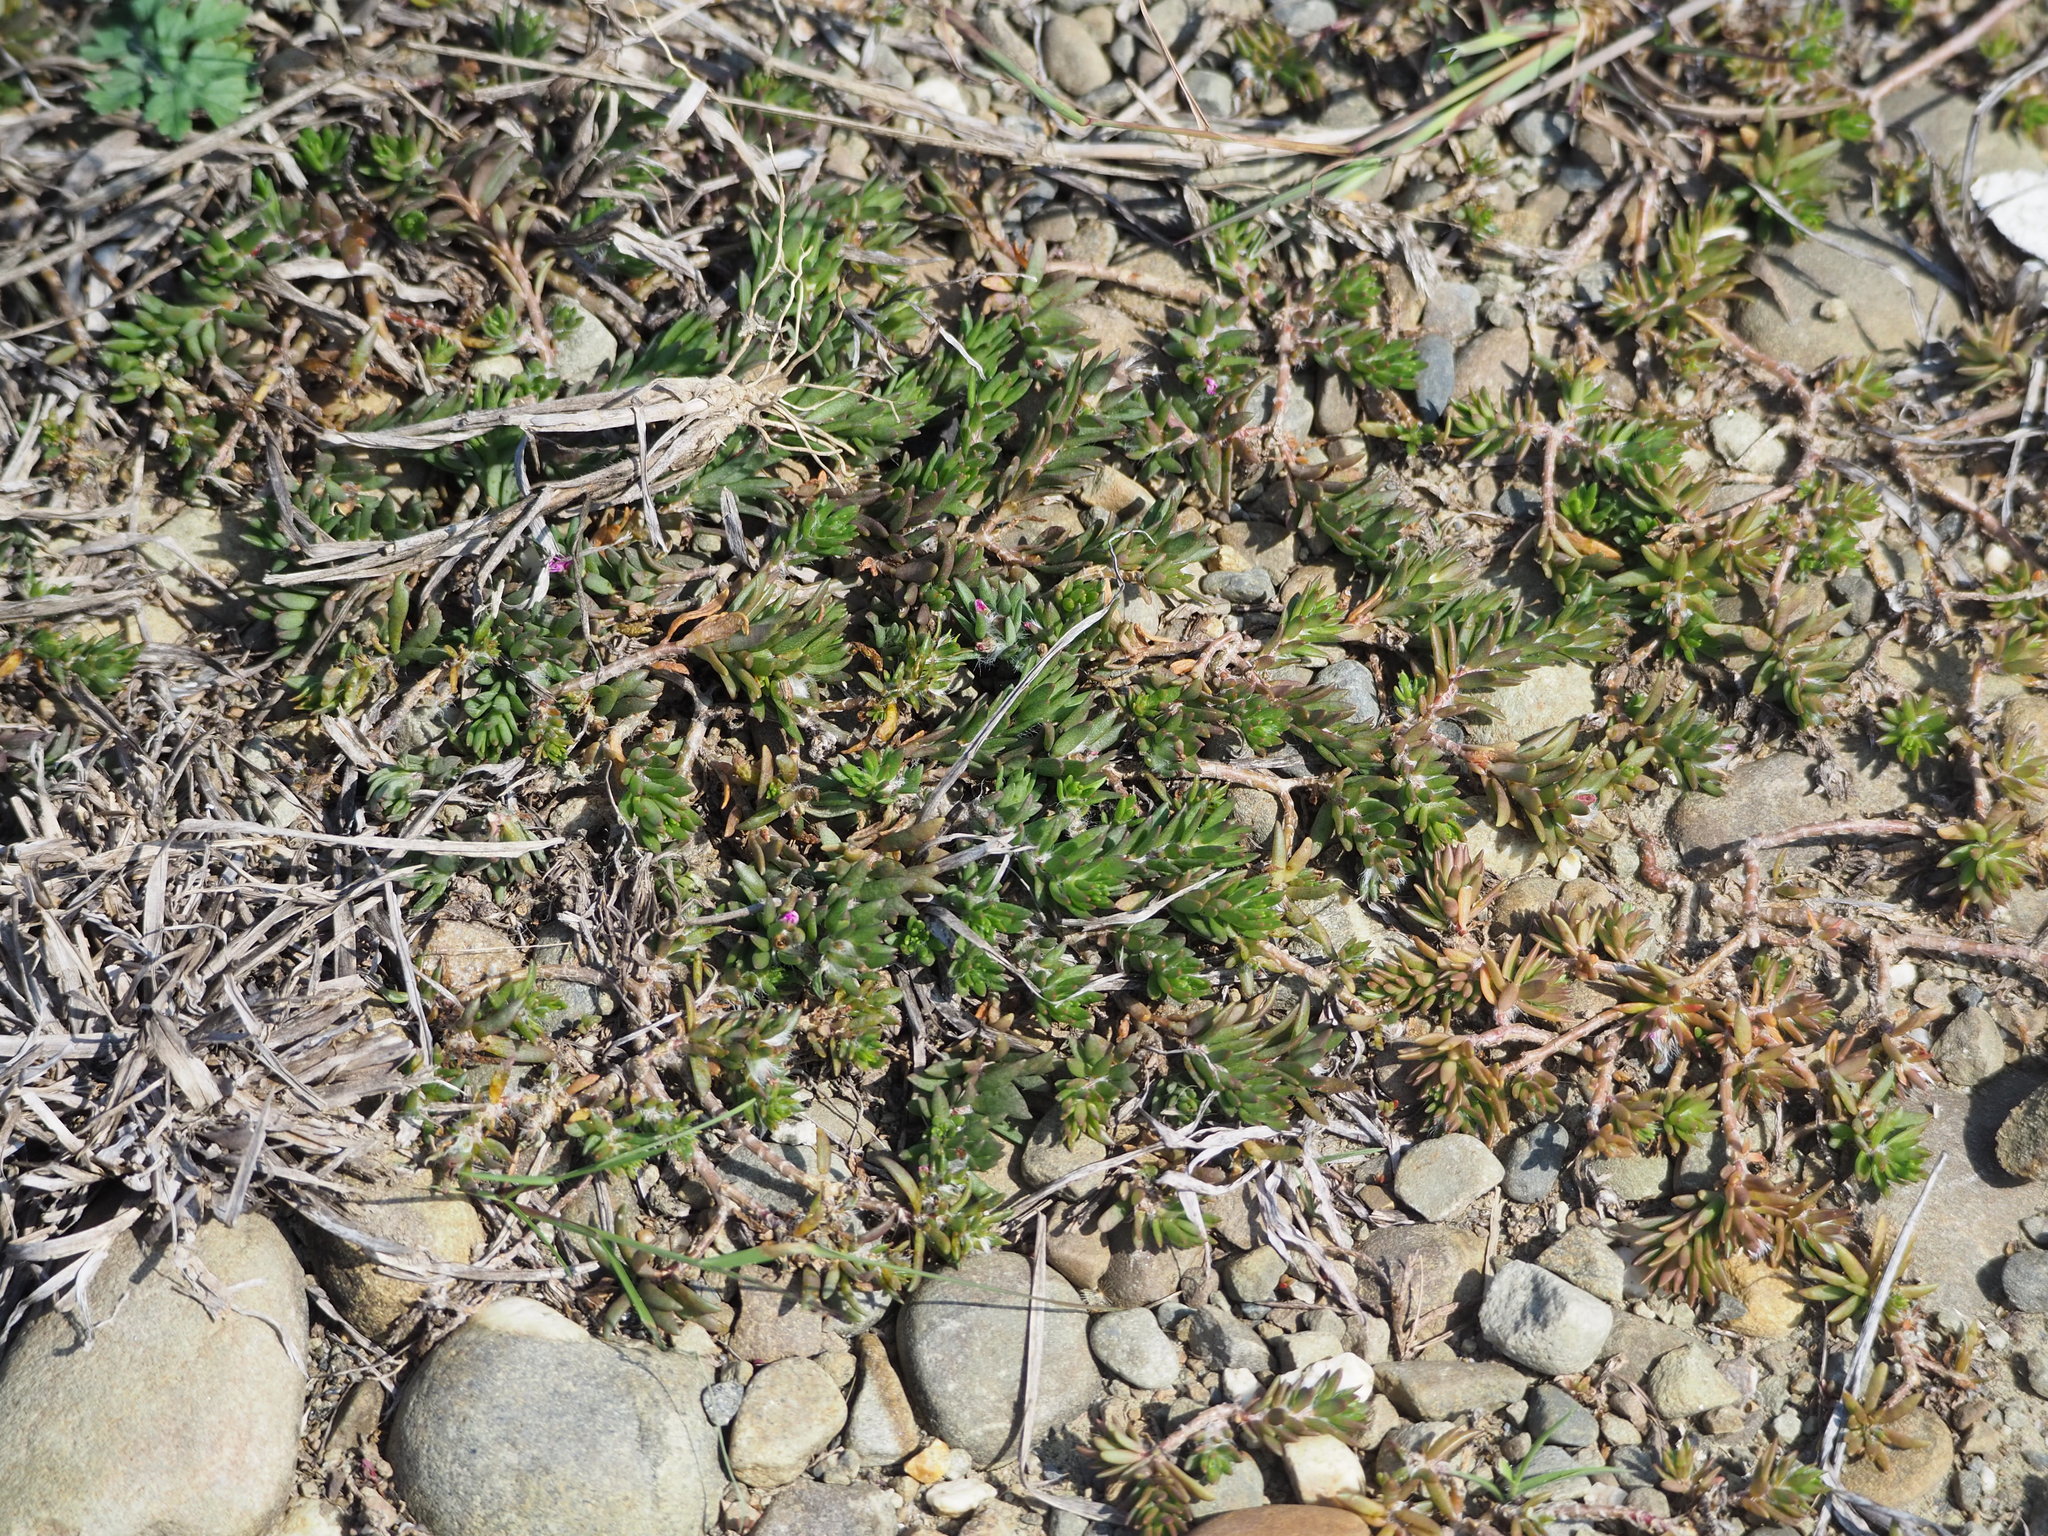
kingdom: Plantae
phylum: Tracheophyta
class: Magnoliopsida
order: Caryophyllales
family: Portulacaceae
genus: Portulaca
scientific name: Portulaca pilosa
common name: Kiss me quick
